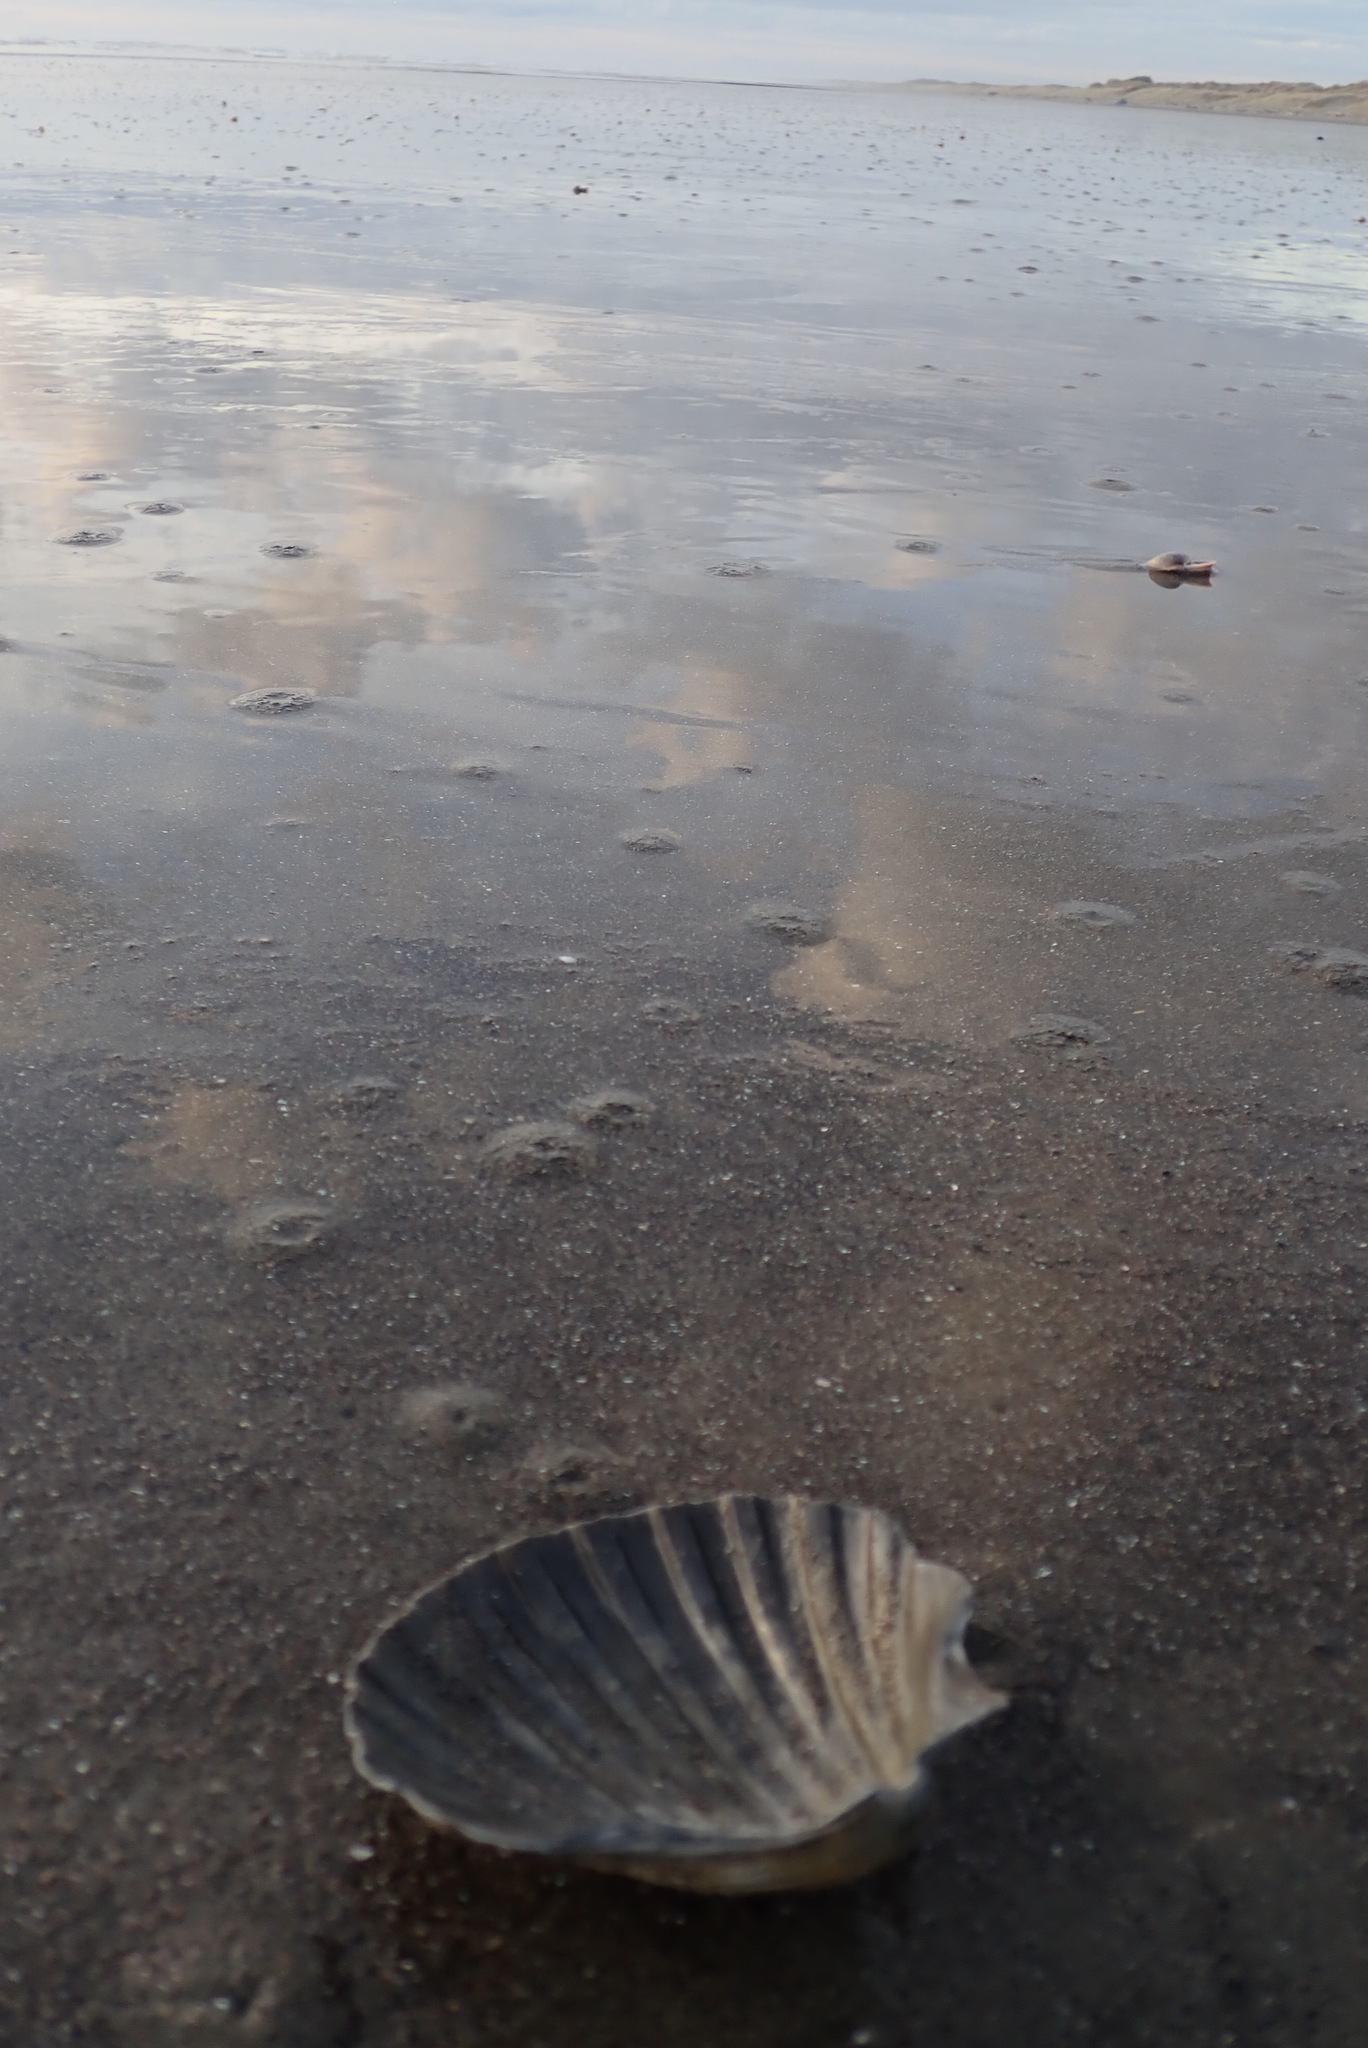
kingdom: Animalia
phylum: Mollusca
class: Bivalvia
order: Pectinida
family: Pectinidae
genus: Pecten
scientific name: Pecten novaezelandiae
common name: New zealand scallop
